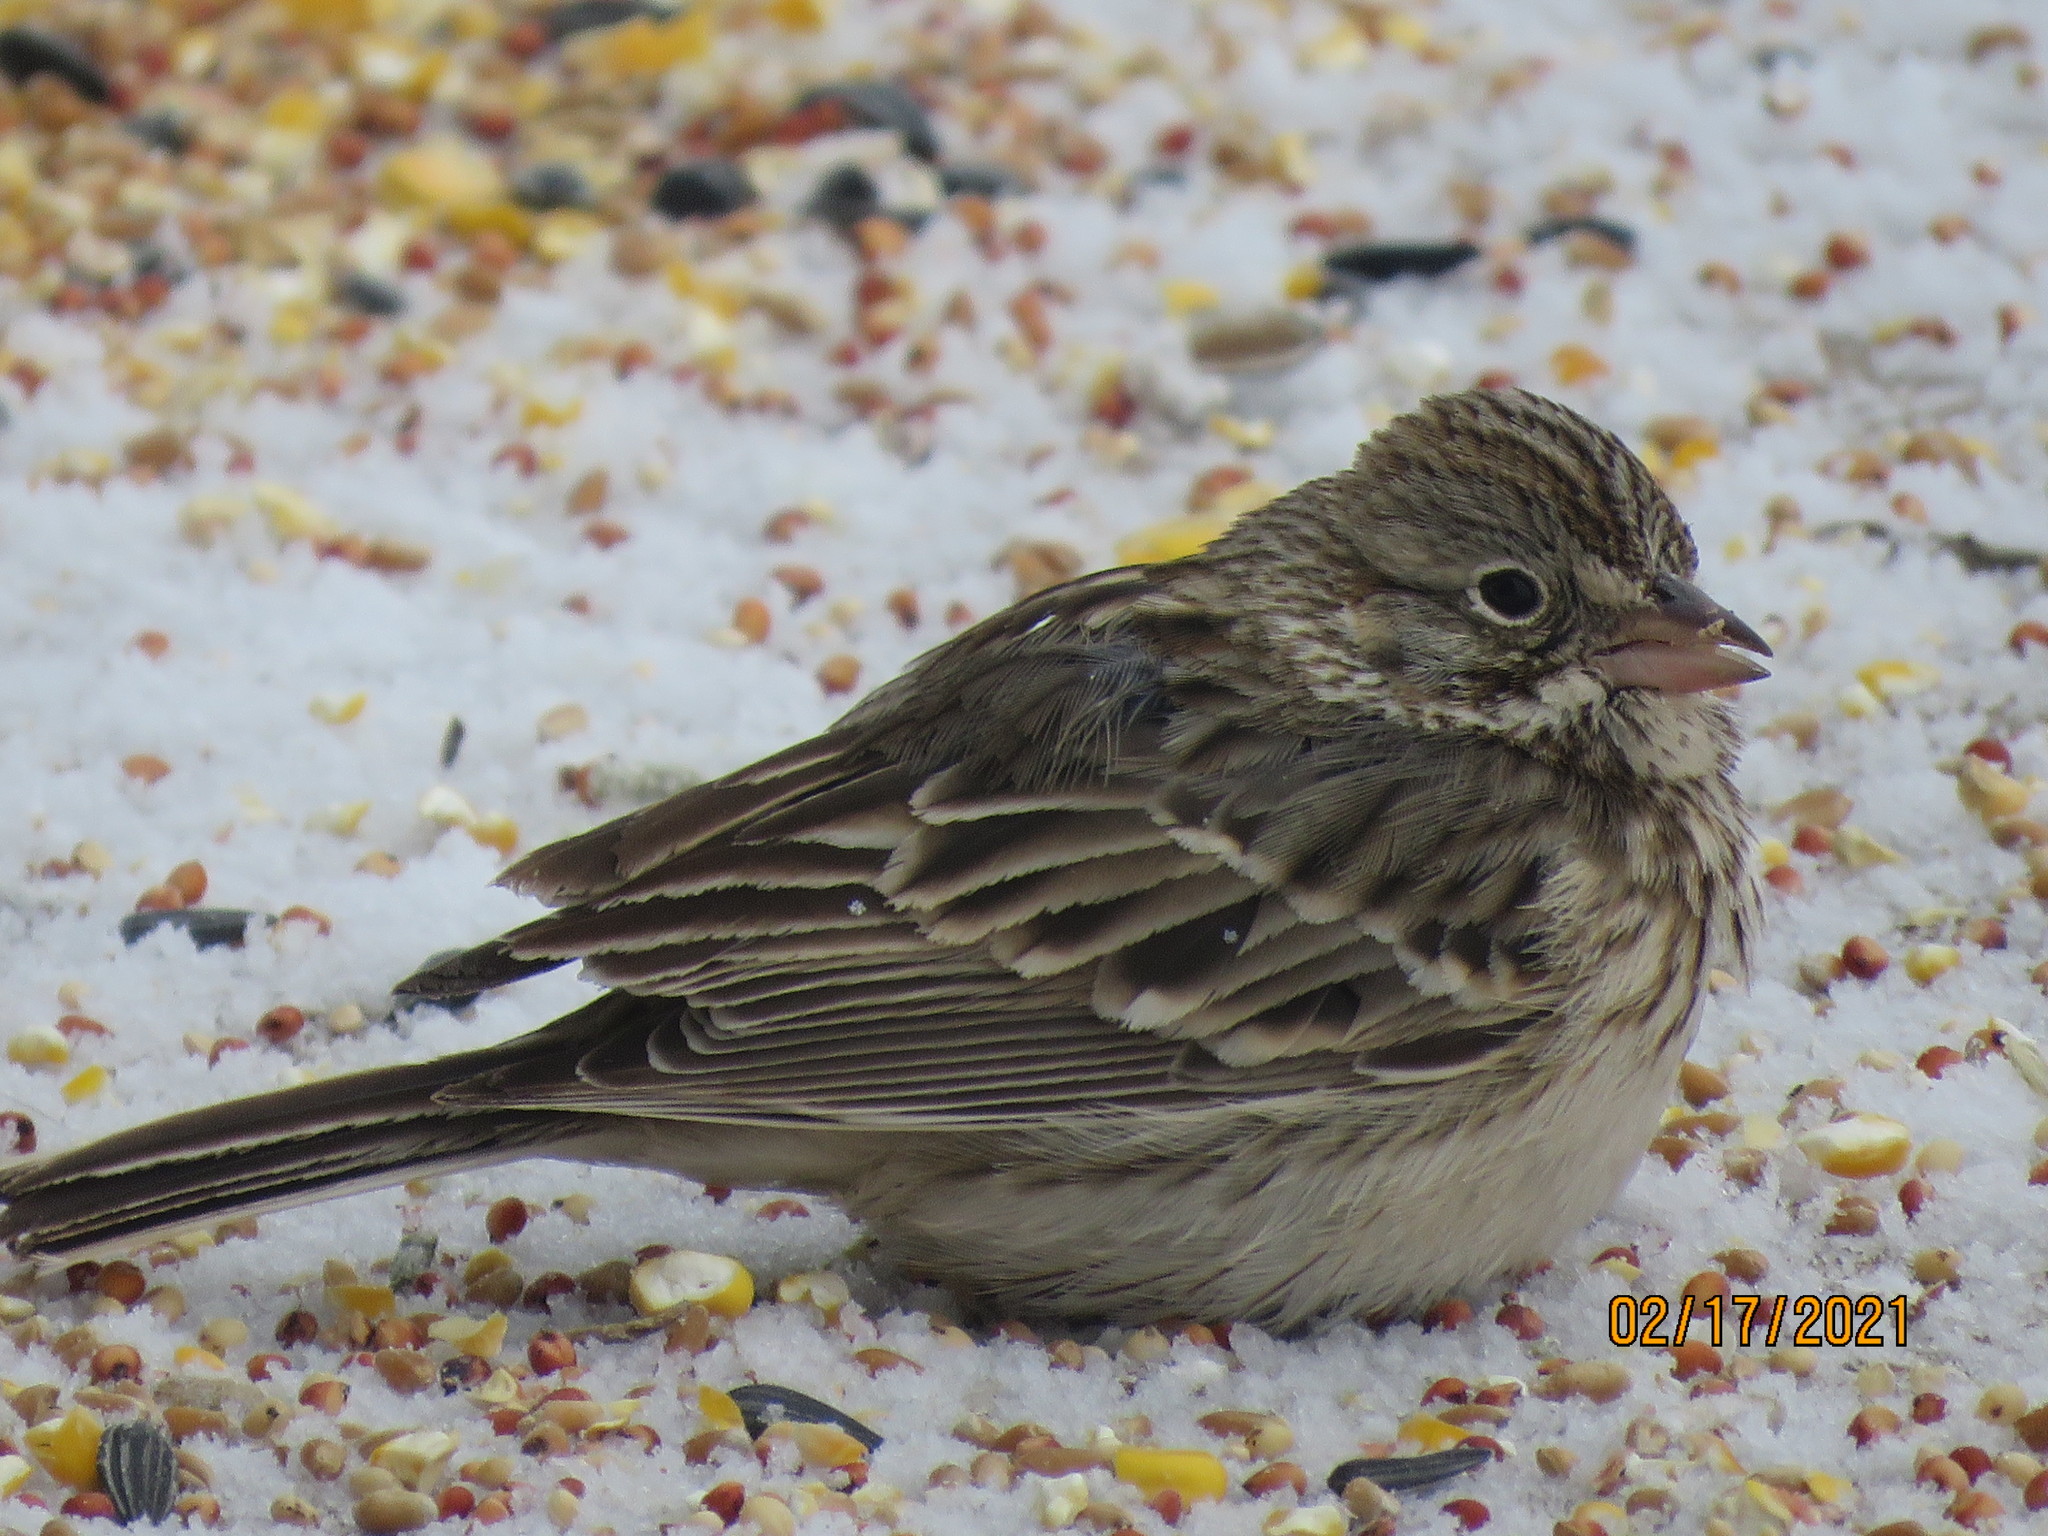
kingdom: Animalia
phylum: Chordata
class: Aves
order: Passeriformes
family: Passerellidae
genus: Pooecetes
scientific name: Pooecetes gramineus
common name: Vesper sparrow
